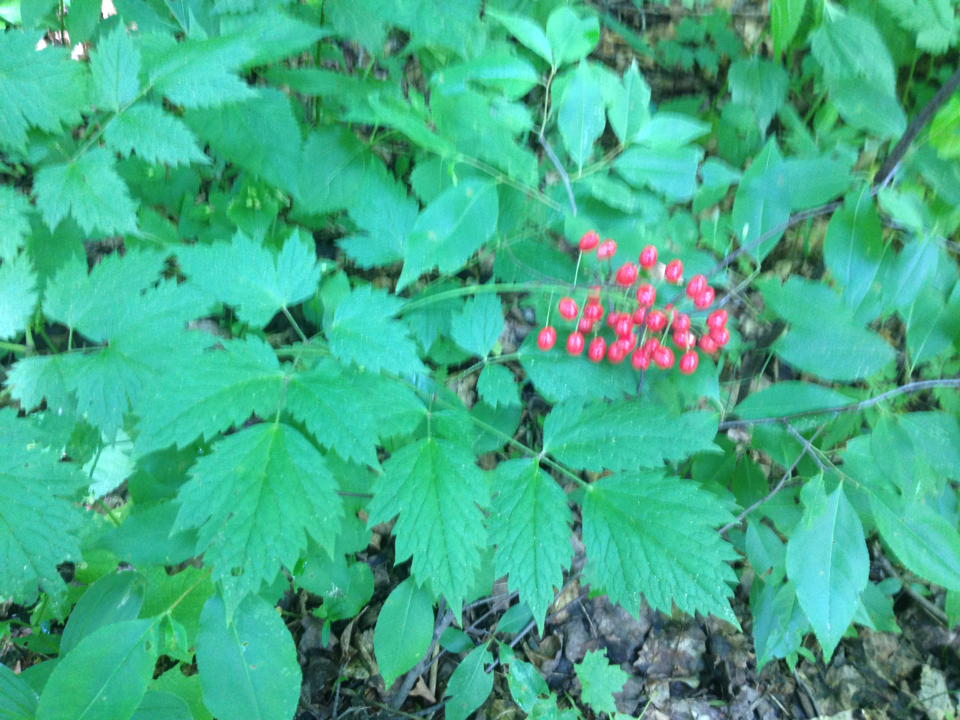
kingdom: Plantae
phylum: Tracheophyta
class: Magnoliopsida
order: Ranunculales
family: Ranunculaceae
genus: Actaea
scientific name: Actaea rubra
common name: Red baneberry
